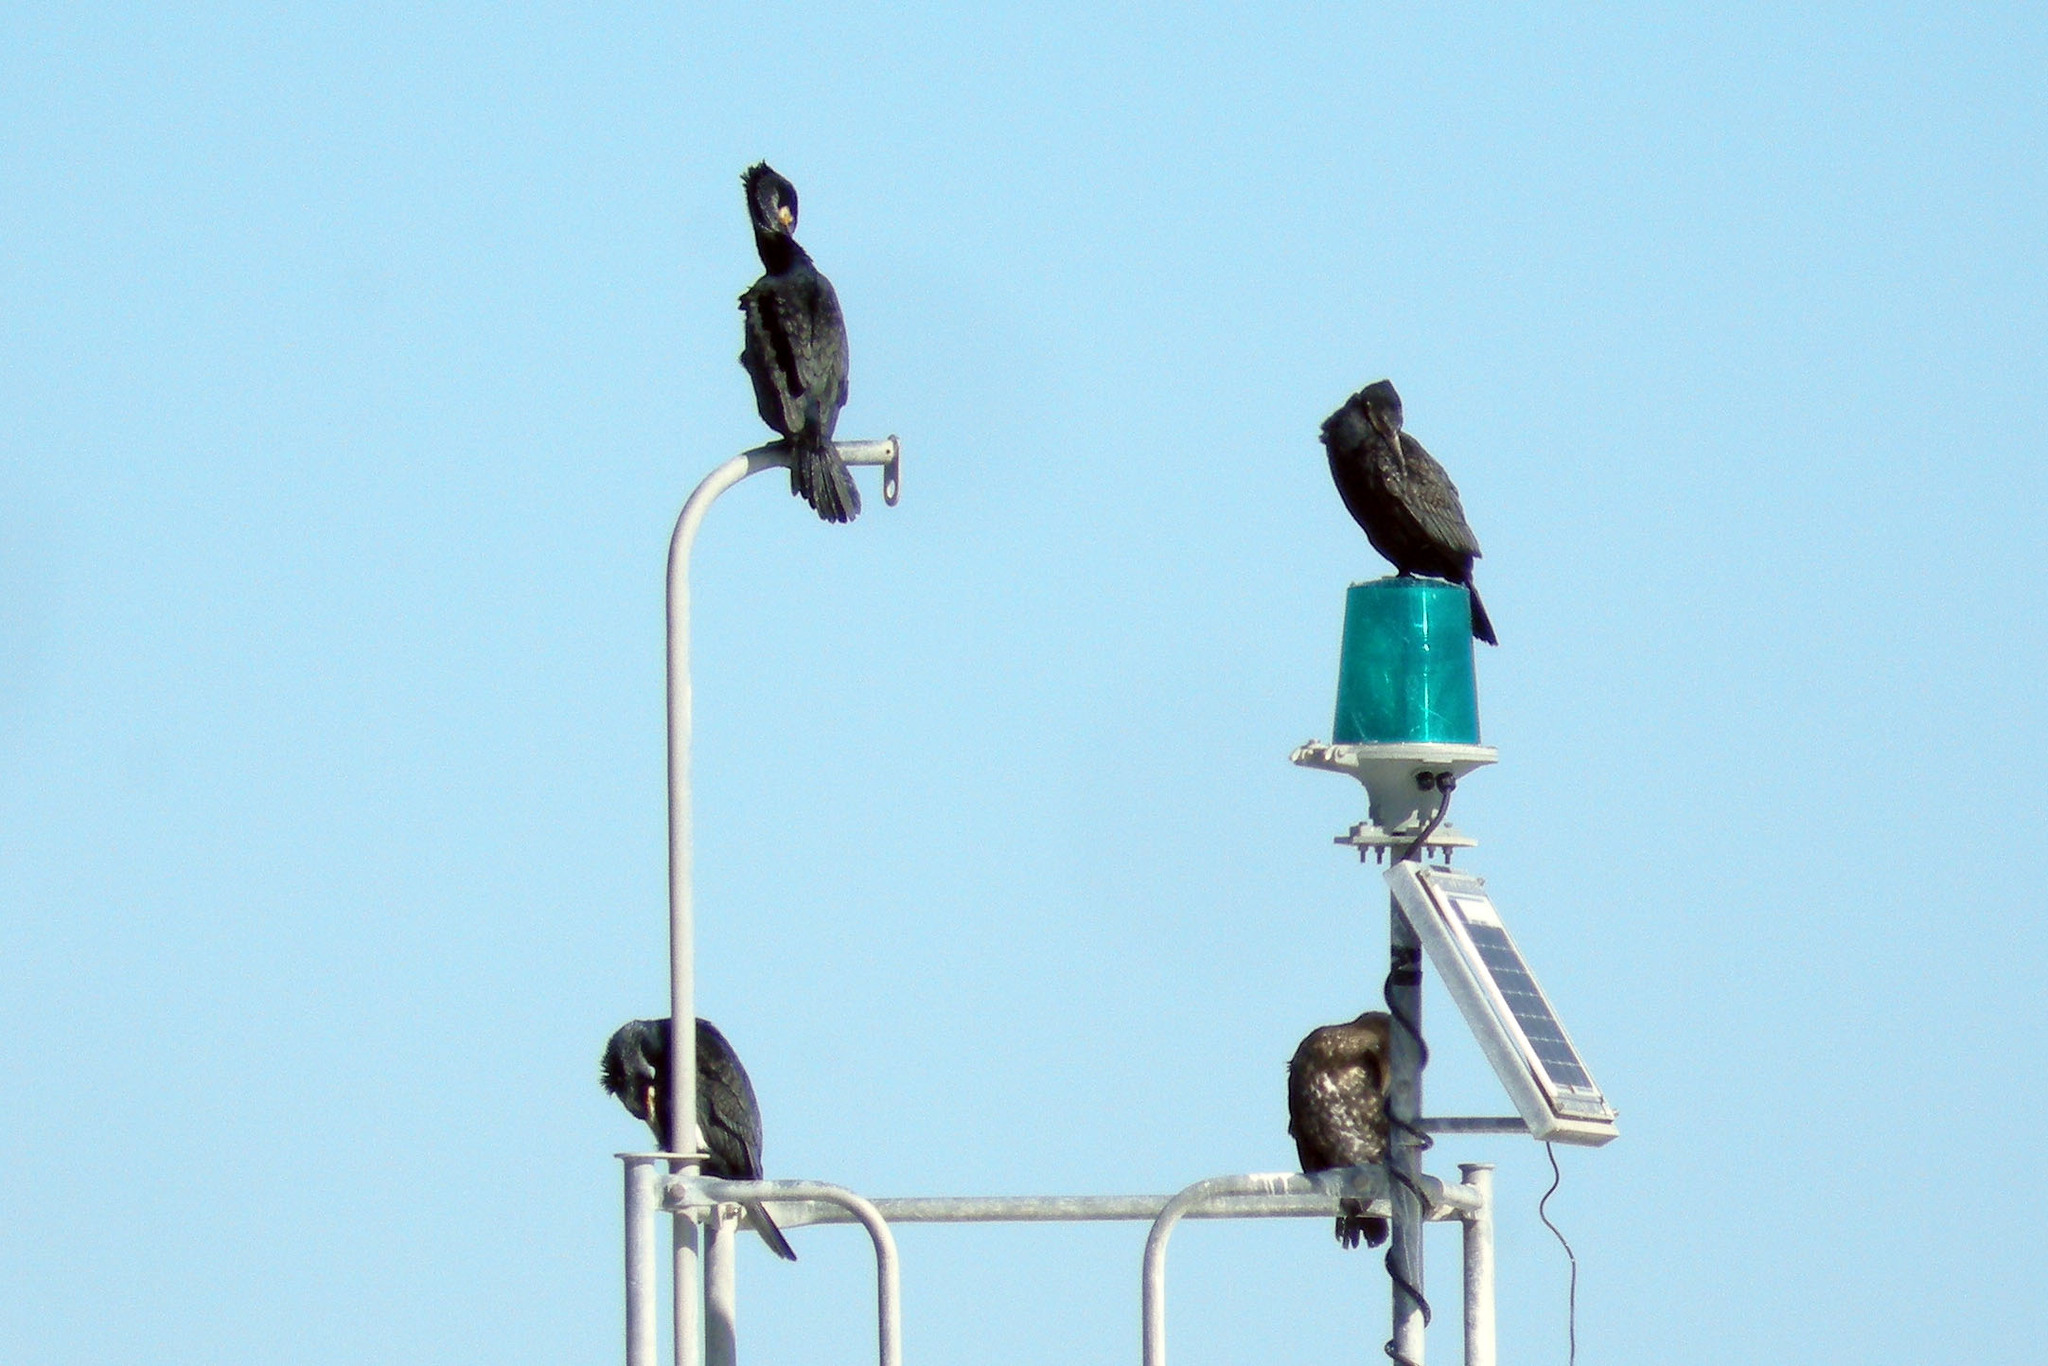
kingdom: Animalia
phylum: Chordata
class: Aves
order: Suliformes
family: Phalacrocoracidae
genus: Phalacrocorax
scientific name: Phalacrocorax carbo
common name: Great cormorant
